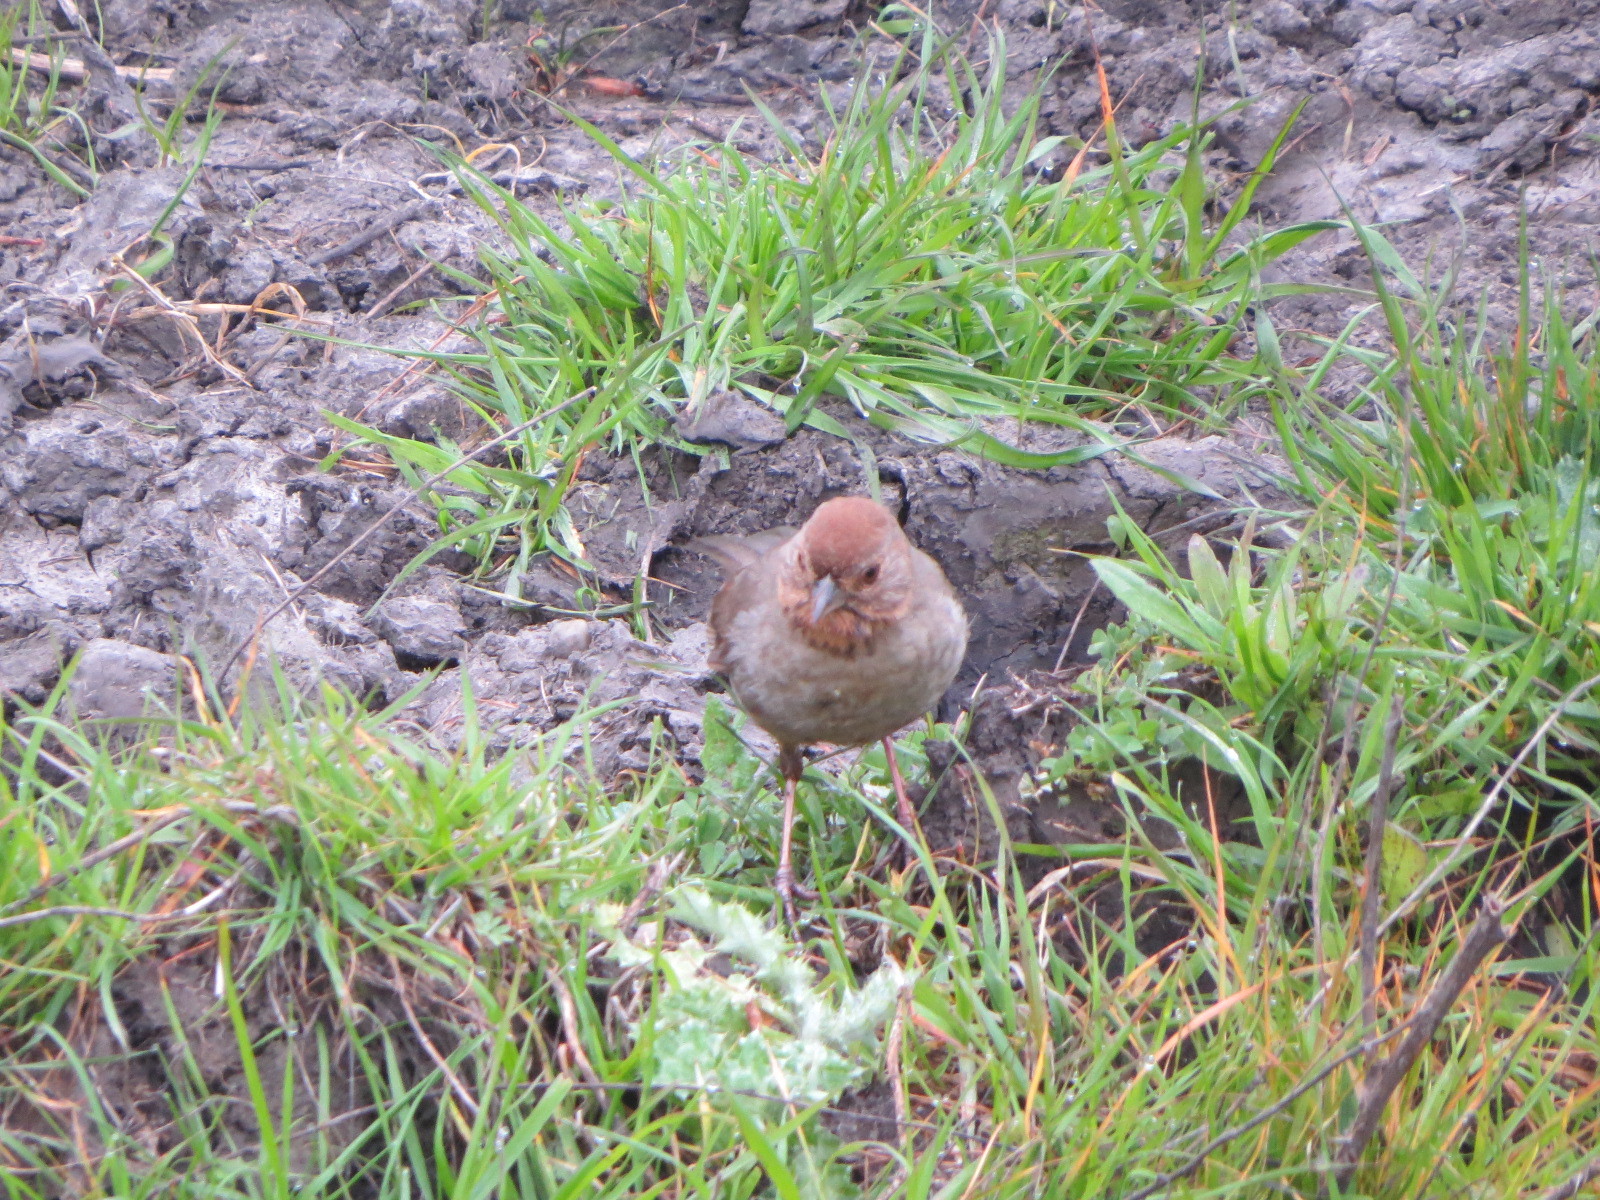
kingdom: Animalia
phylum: Chordata
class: Aves
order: Passeriformes
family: Passerellidae
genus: Melozone
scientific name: Melozone crissalis
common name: California towhee
